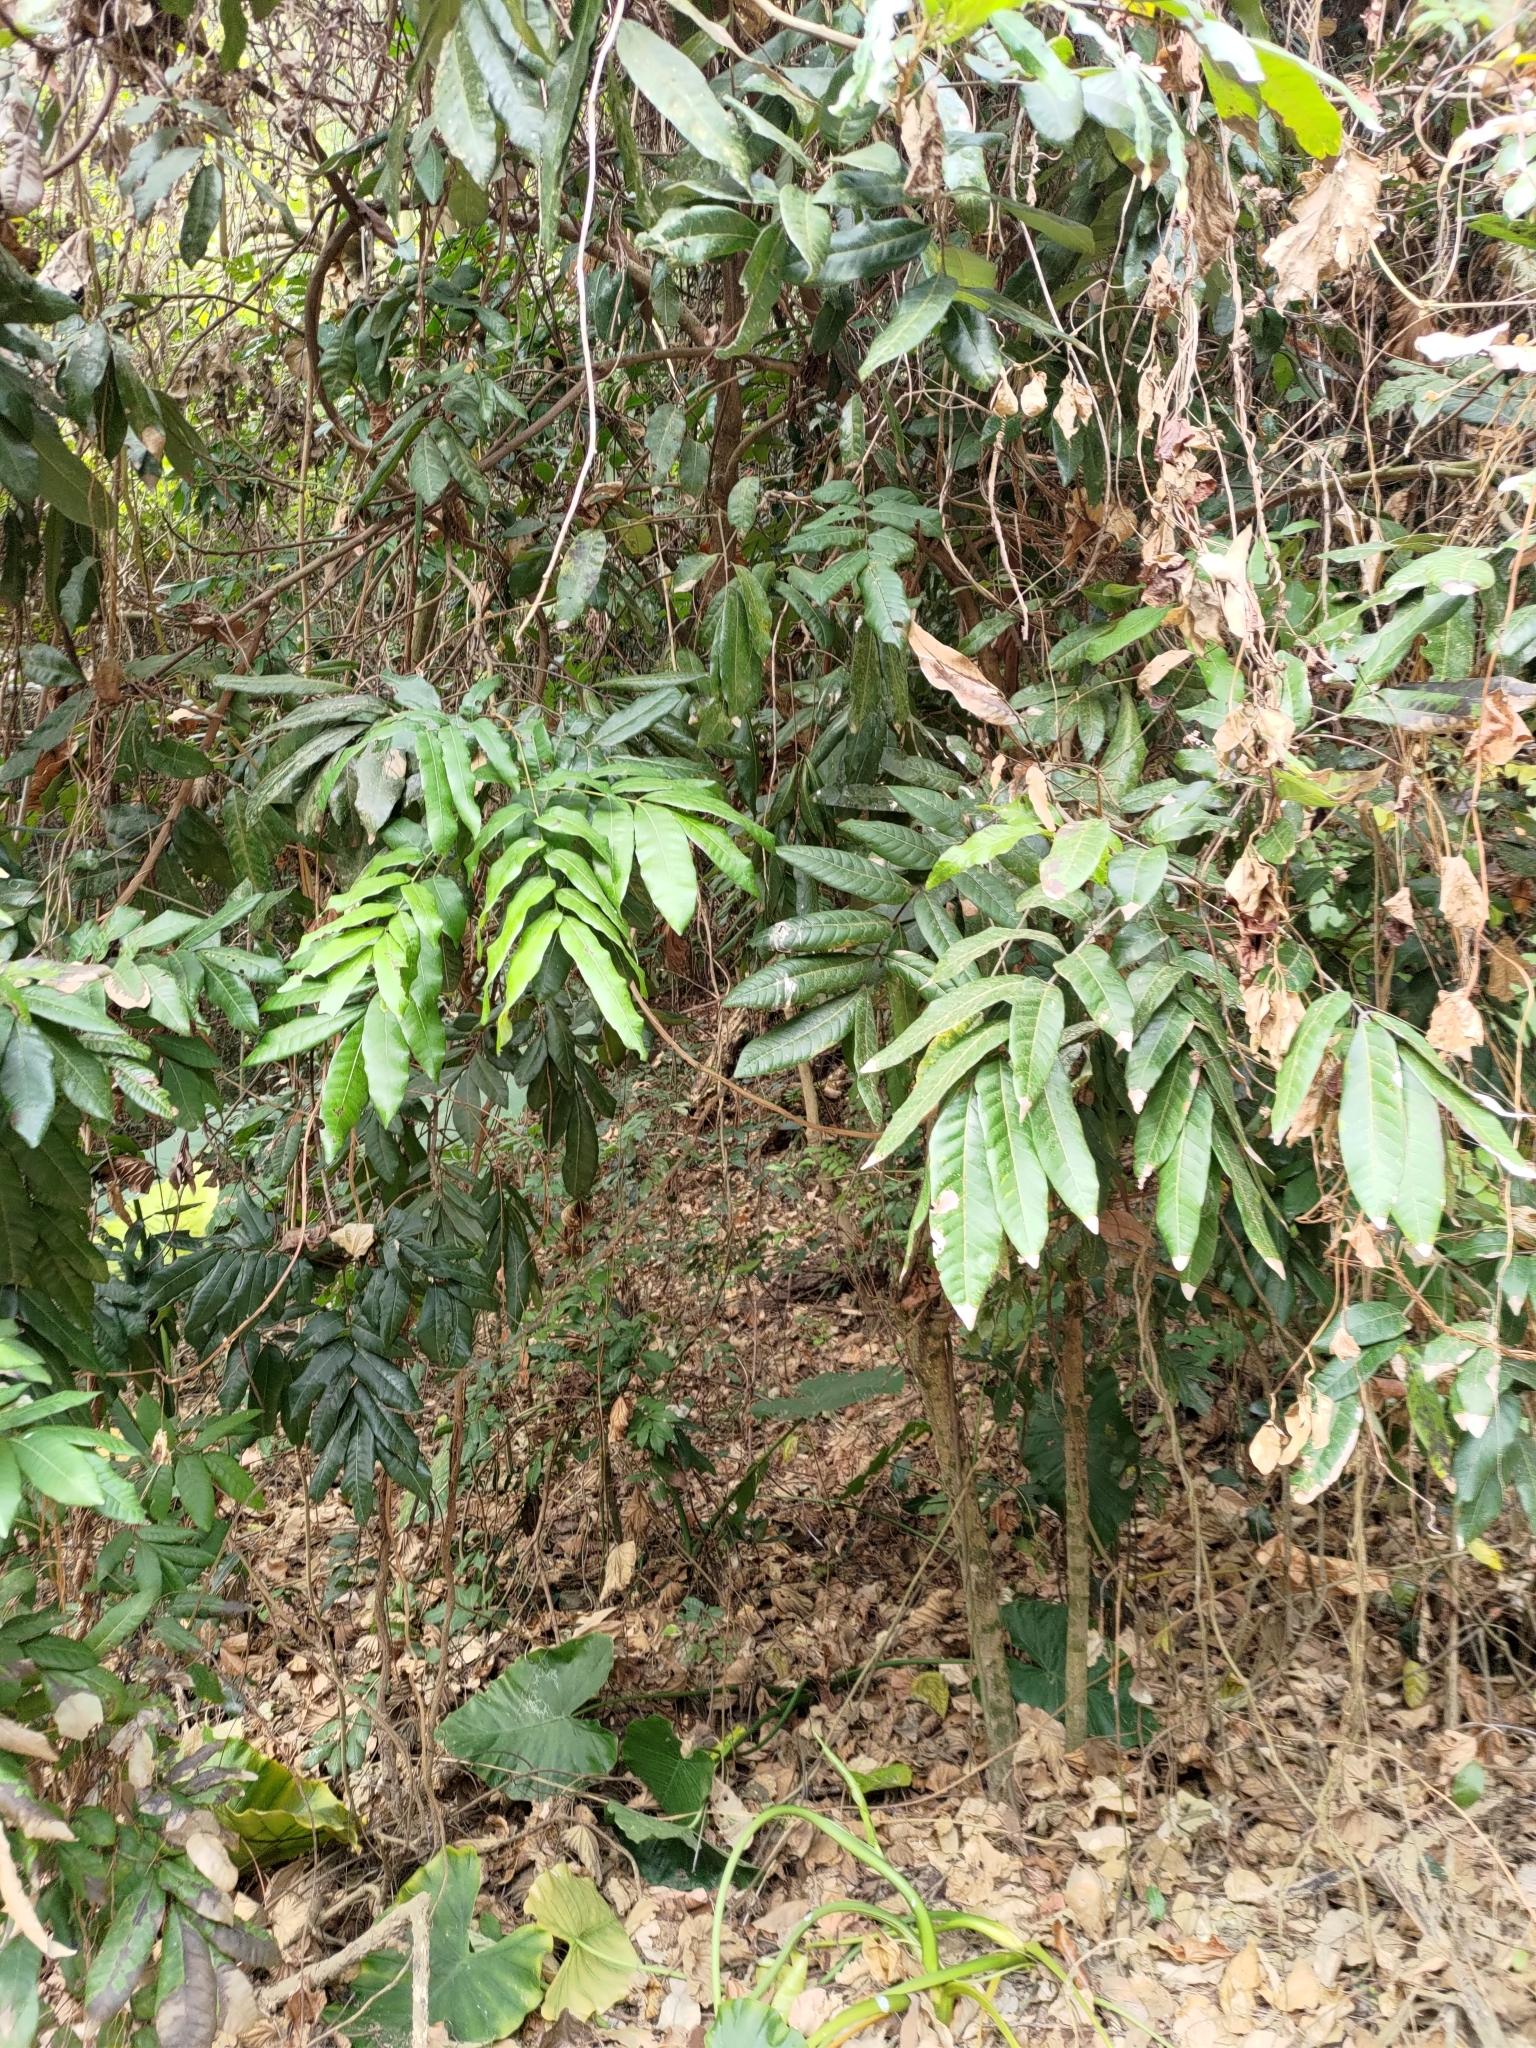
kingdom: Plantae
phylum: Tracheophyta
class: Magnoliopsida
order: Sapindales
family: Sapindaceae
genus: Dimocarpus
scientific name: Dimocarpus longan
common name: Longan
